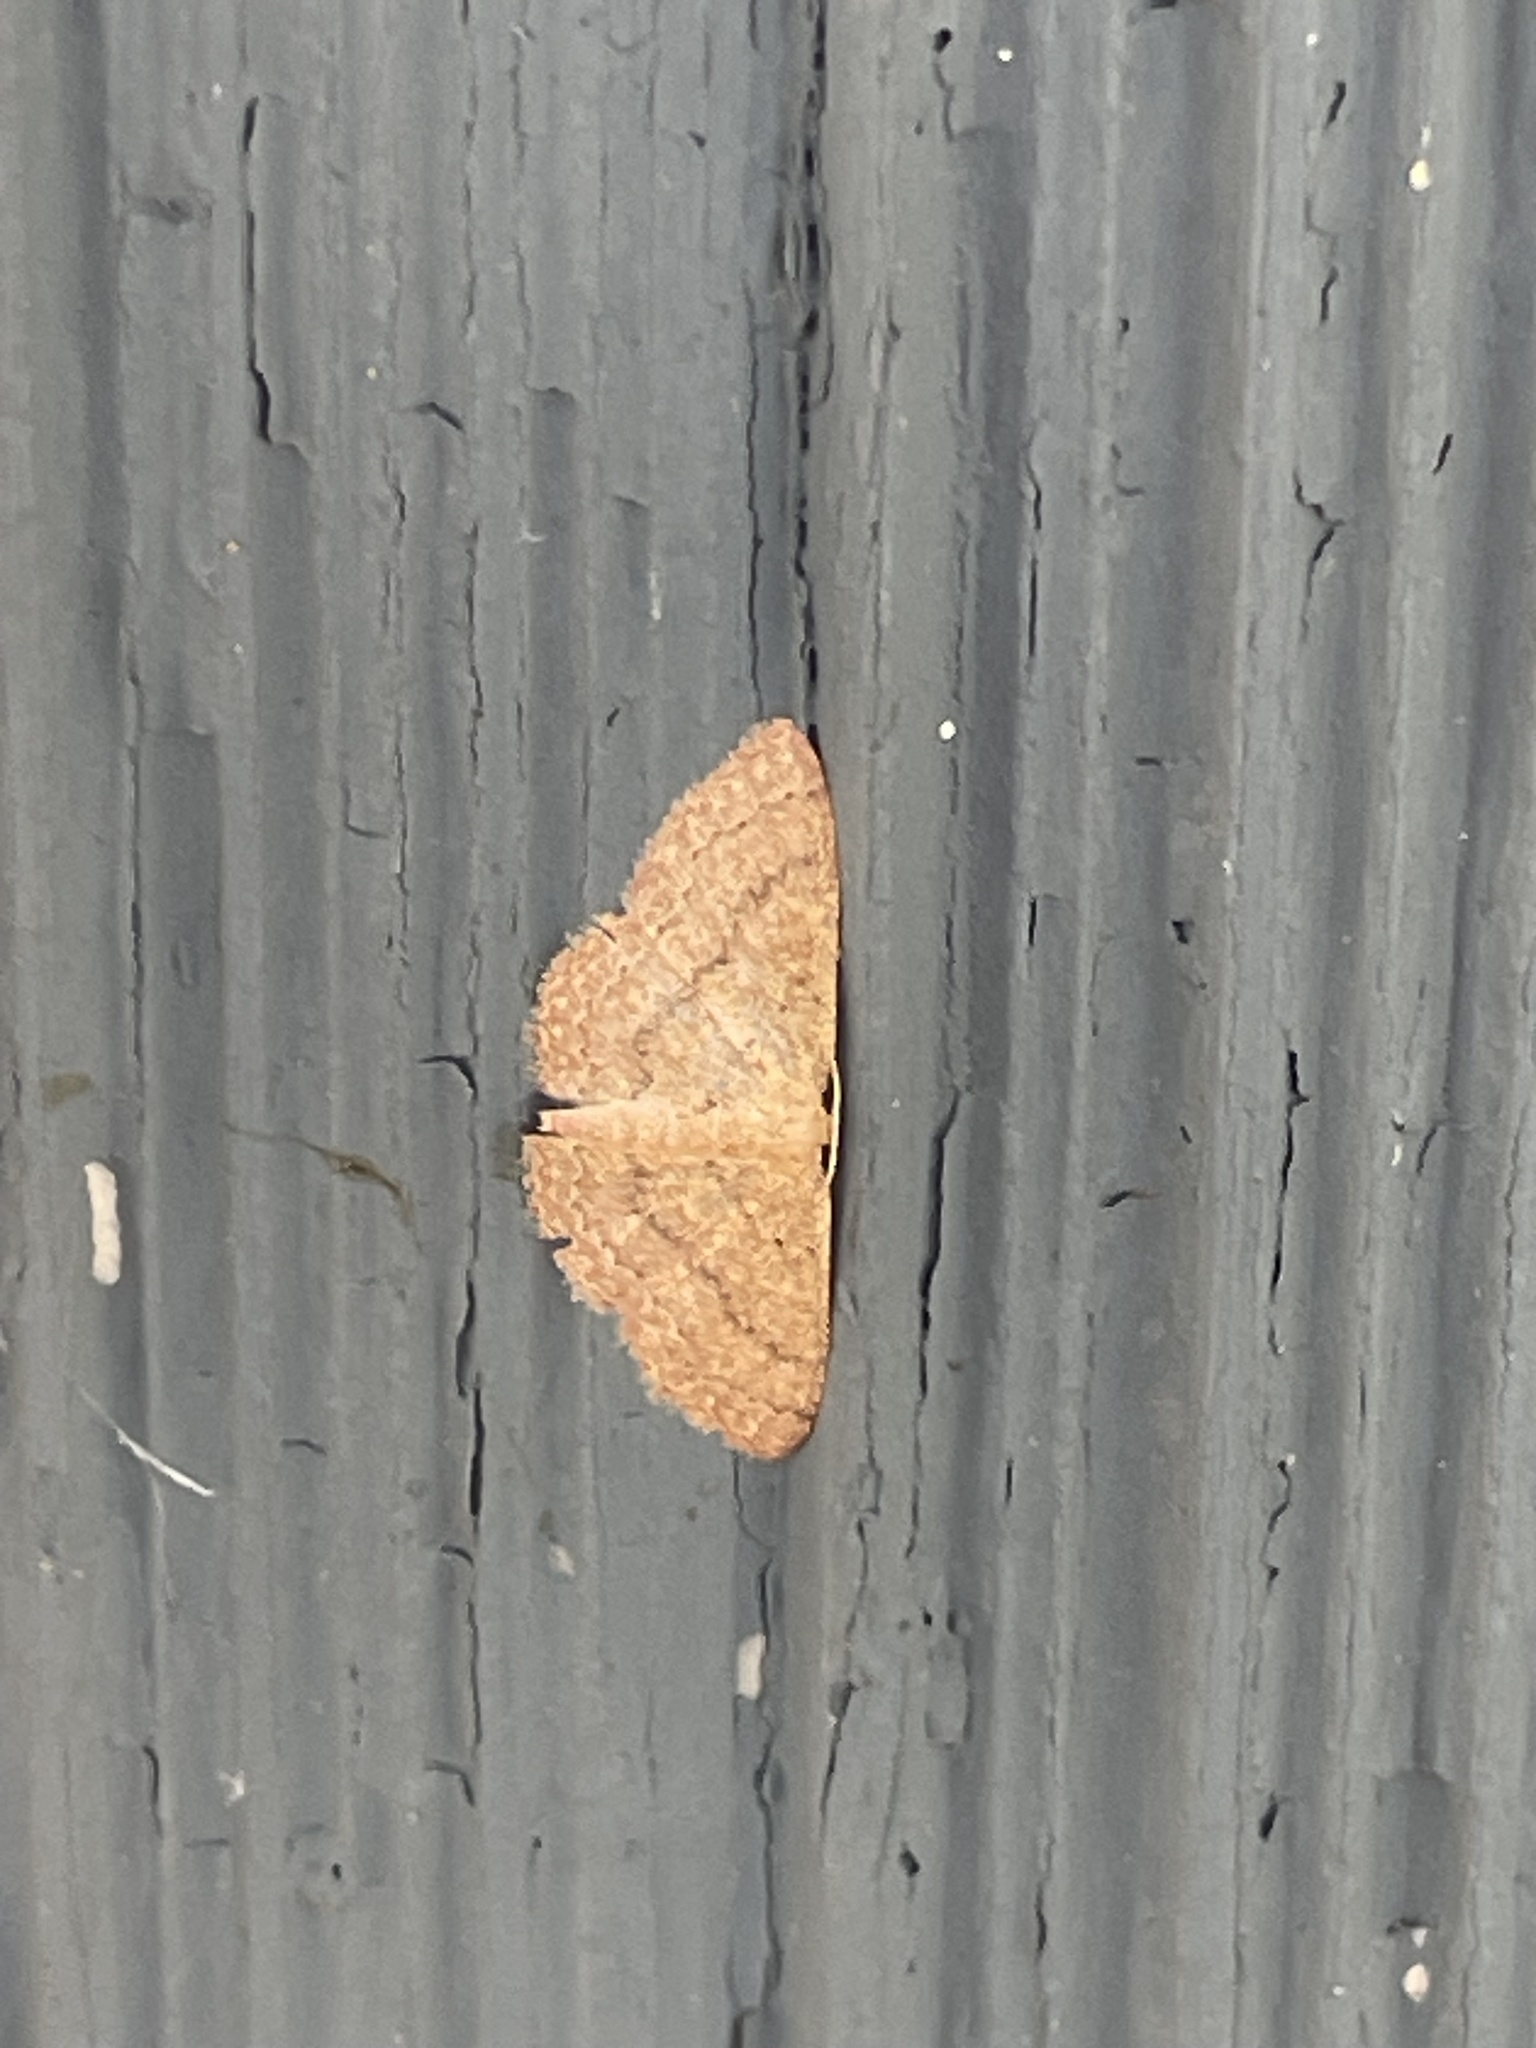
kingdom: Animalia
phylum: Arthropoda
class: Insecta
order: Lepidoptera
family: Geometridae
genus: Pleuroprucha
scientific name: Pleuroprucha insulsaria
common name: Common tan wave
